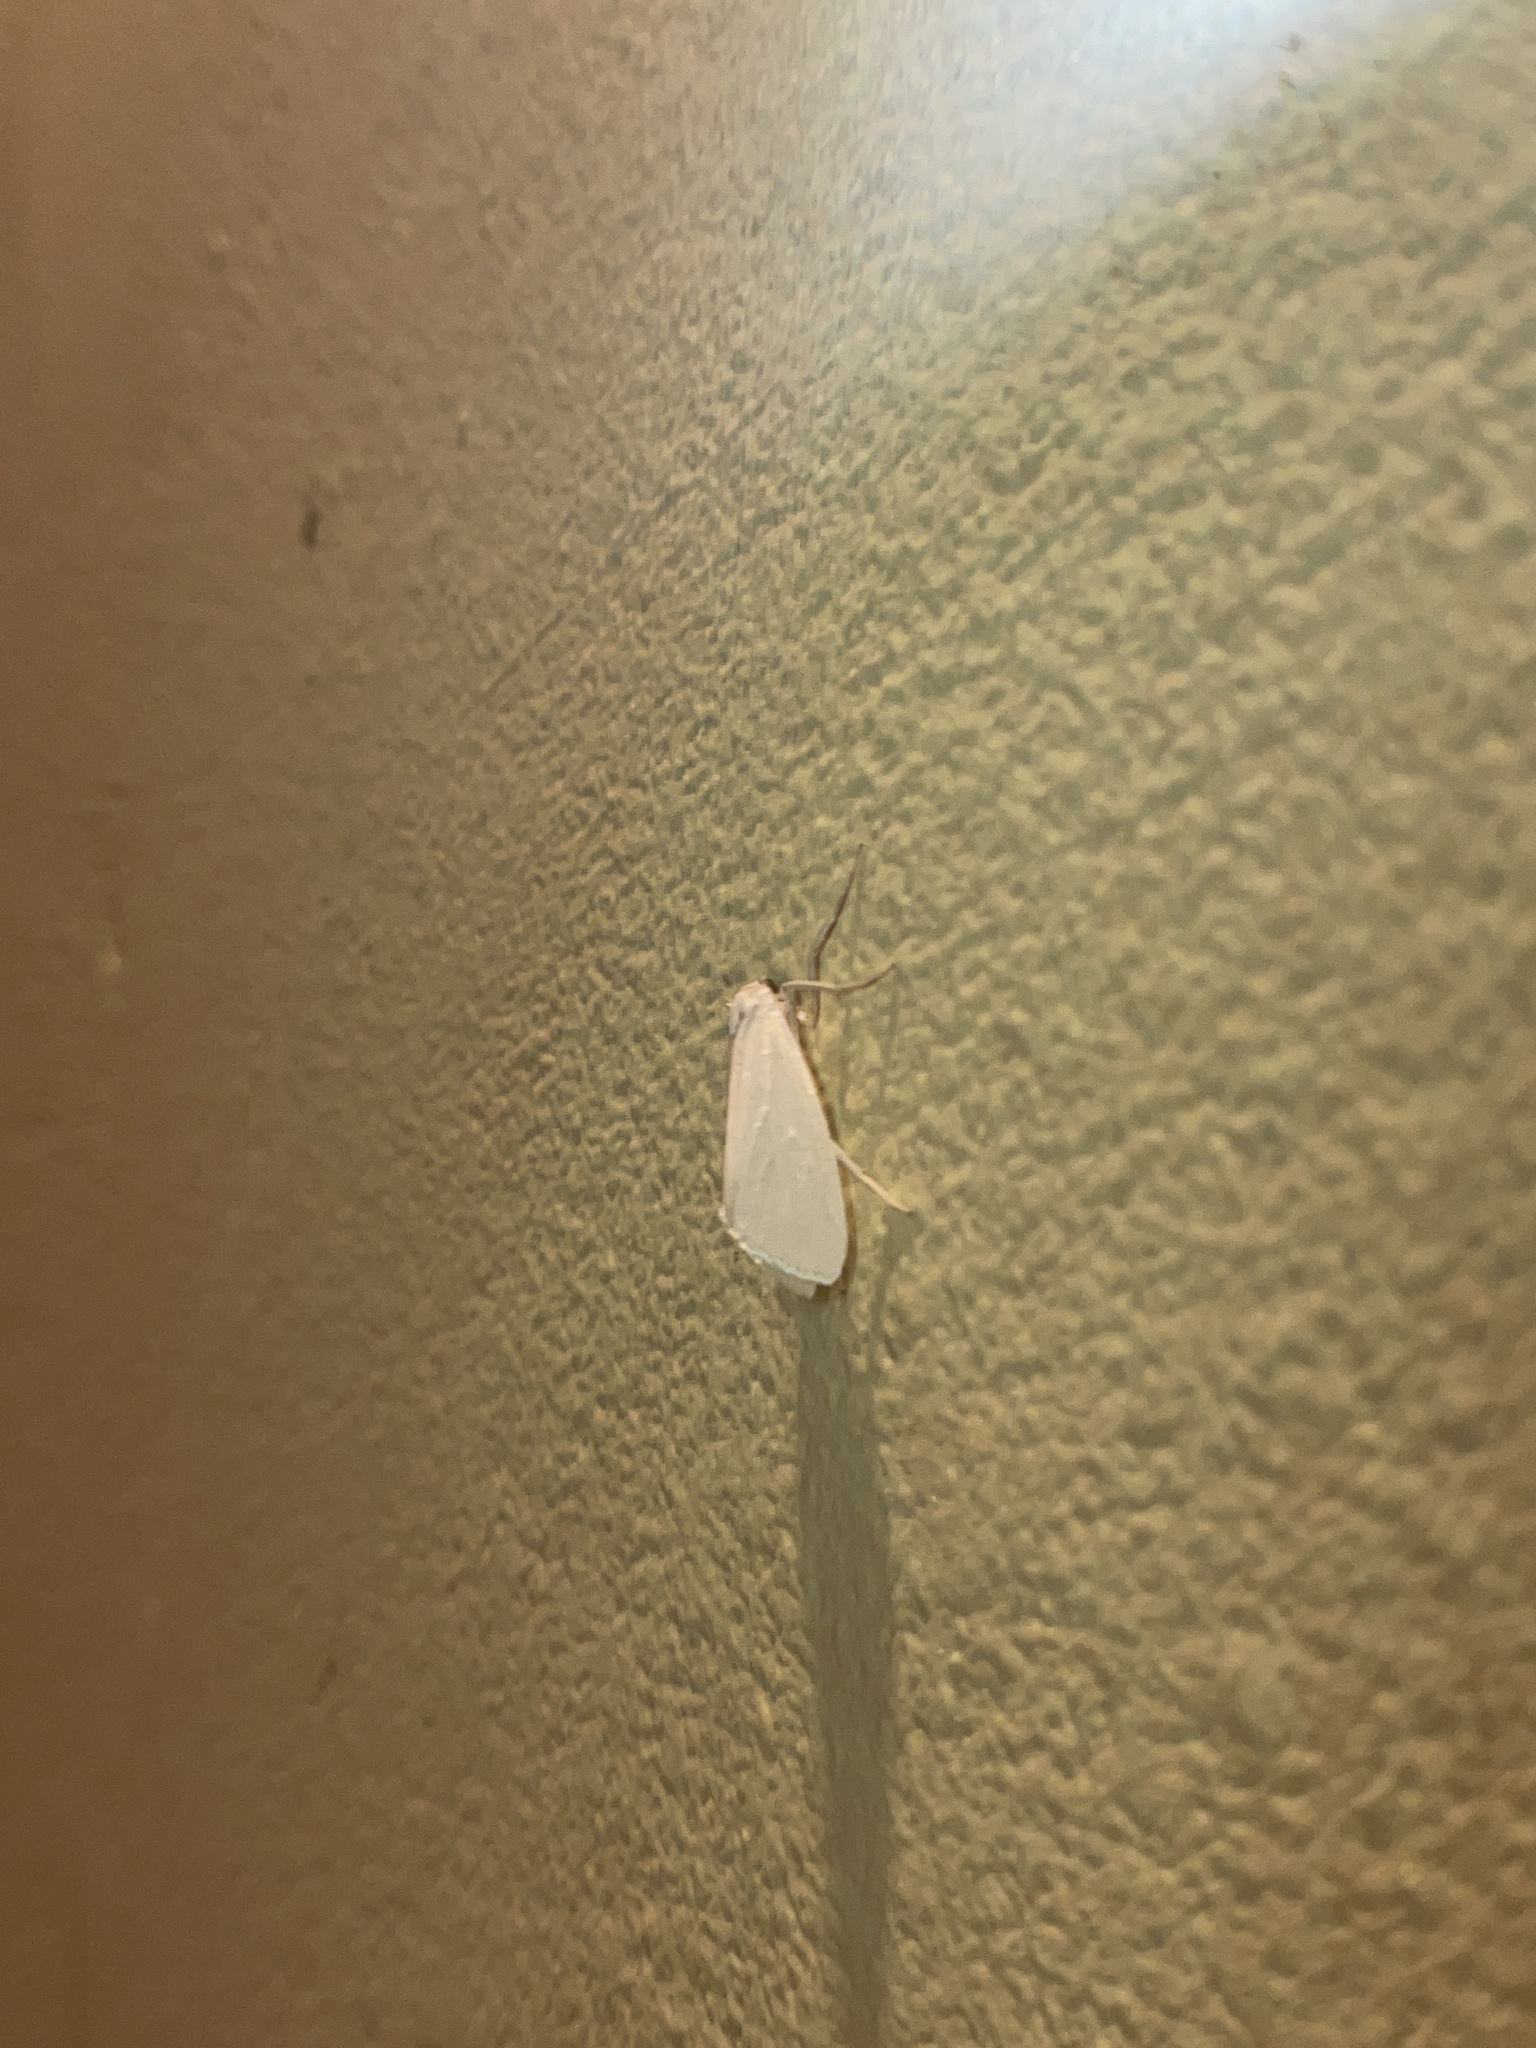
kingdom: Animalia
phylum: Arthropoda
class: Insecta
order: Lepidoptera
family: Erebidae
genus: Agylla
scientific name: Agylla argentifera
